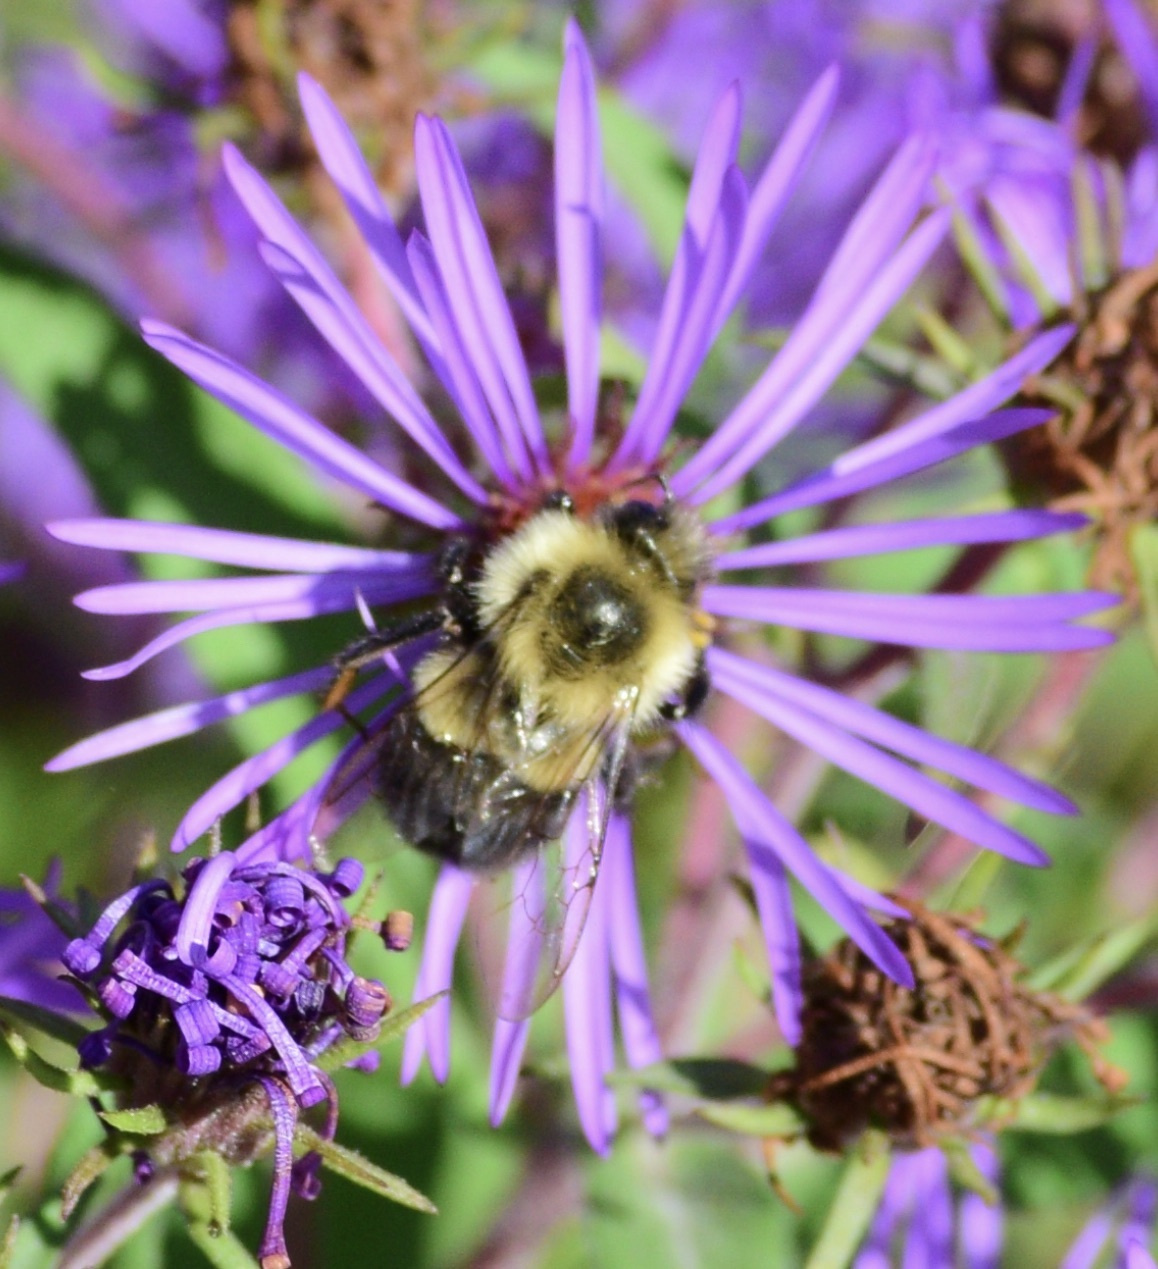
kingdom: Animalia
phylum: Arthropoda
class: Insecta
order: Hymenoptera
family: Apidae
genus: Bombus
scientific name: Bombus impatiens
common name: Common eastern bumble bee
